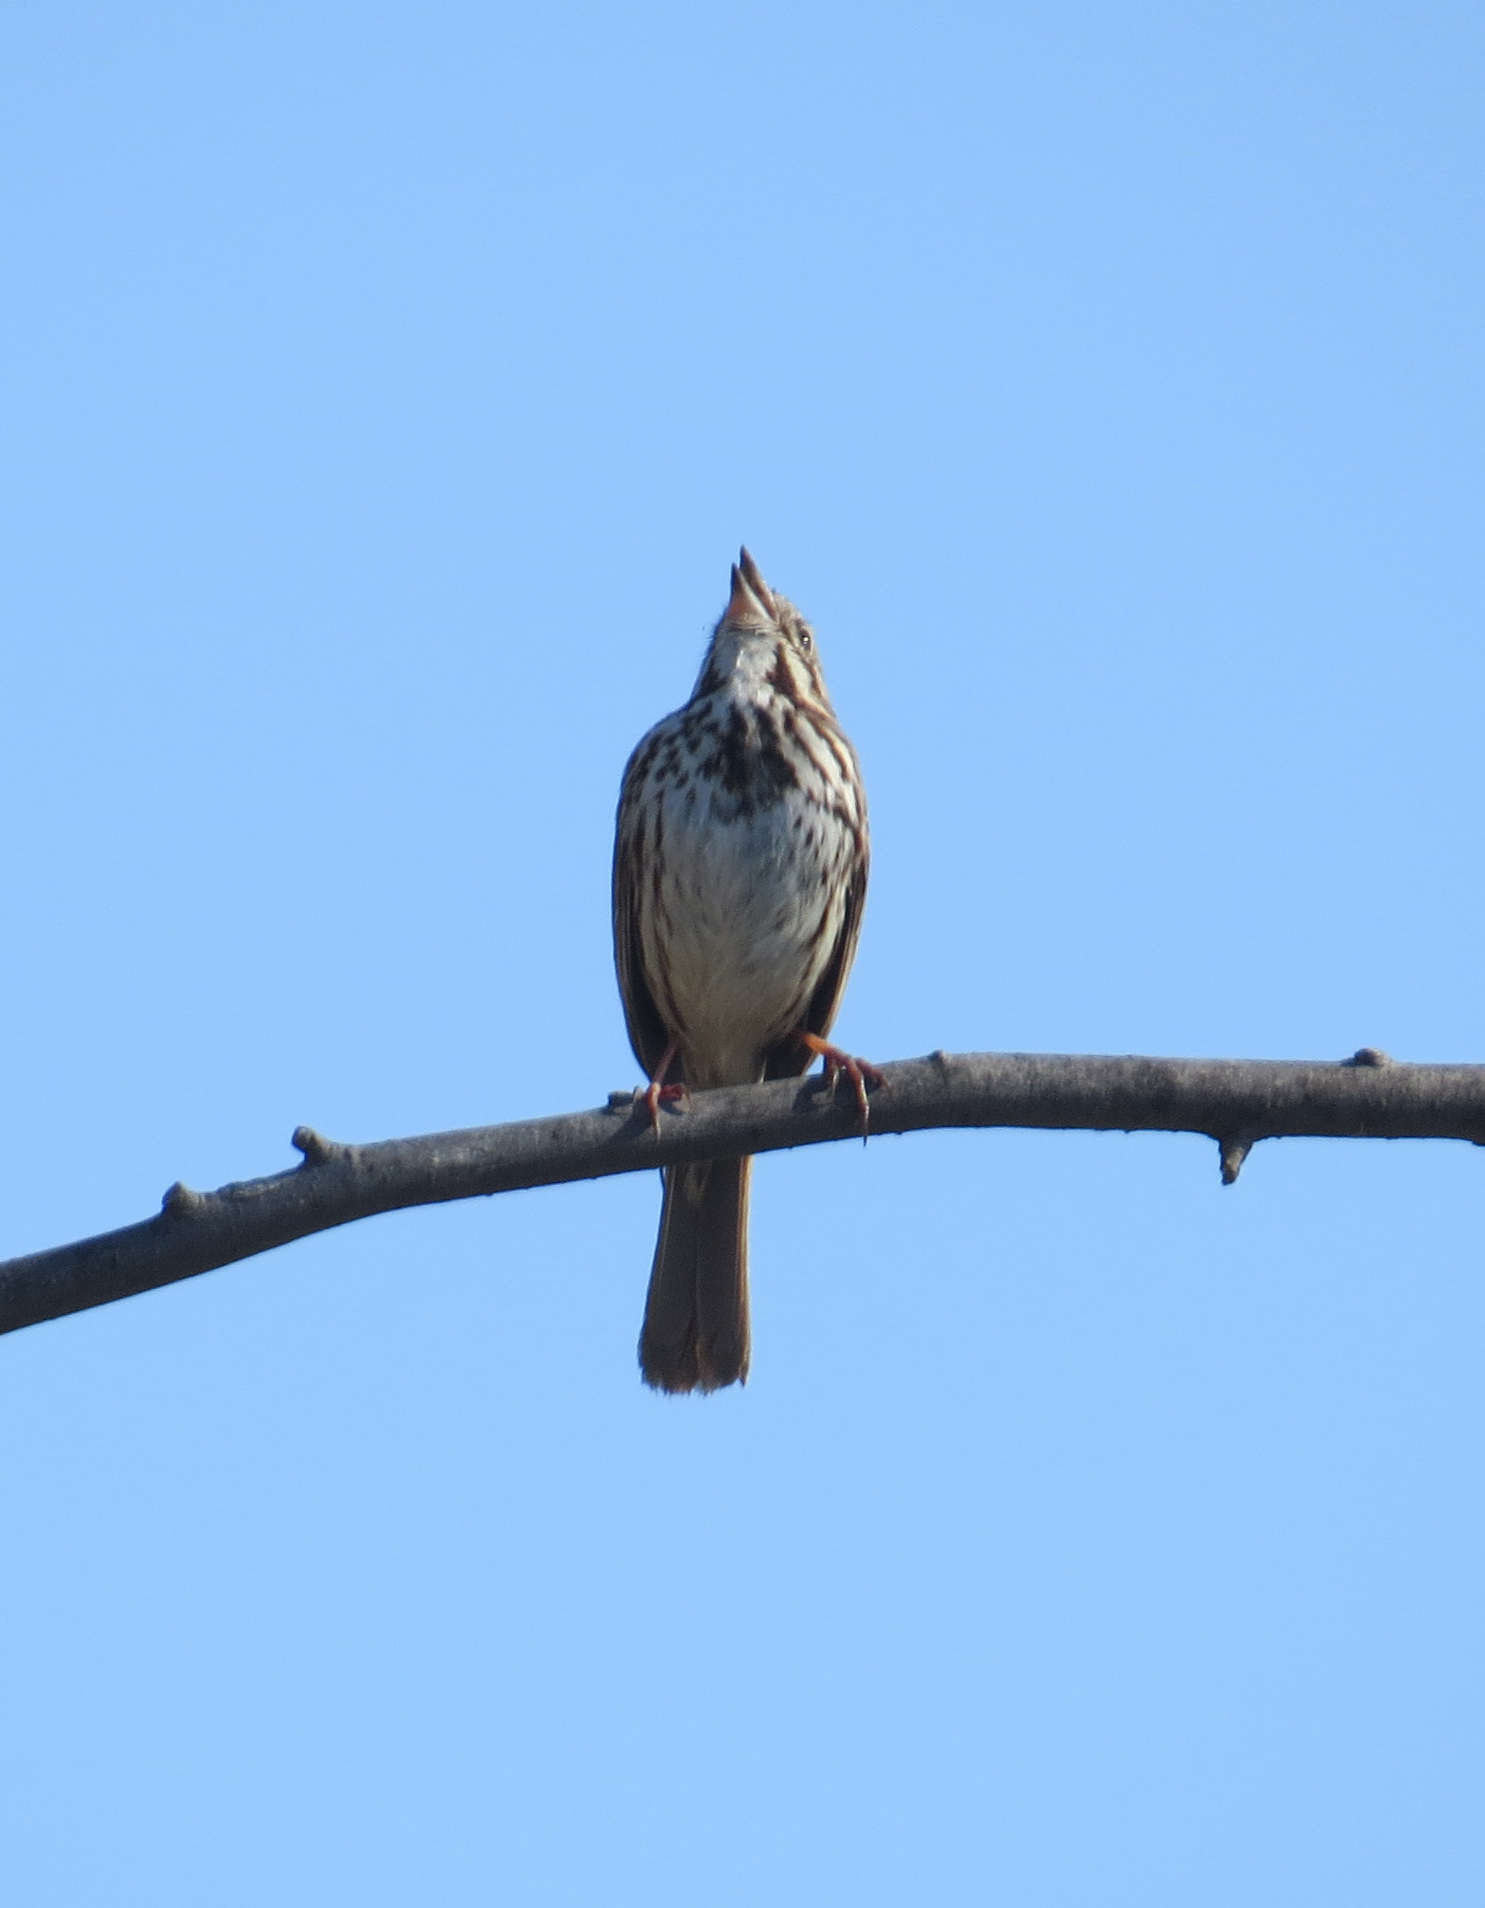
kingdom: Animalia
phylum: Chordata
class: Aves
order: Passeriformes
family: Passerellidae
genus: Melospiza
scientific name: Melospiza melodia
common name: Song sparrow
